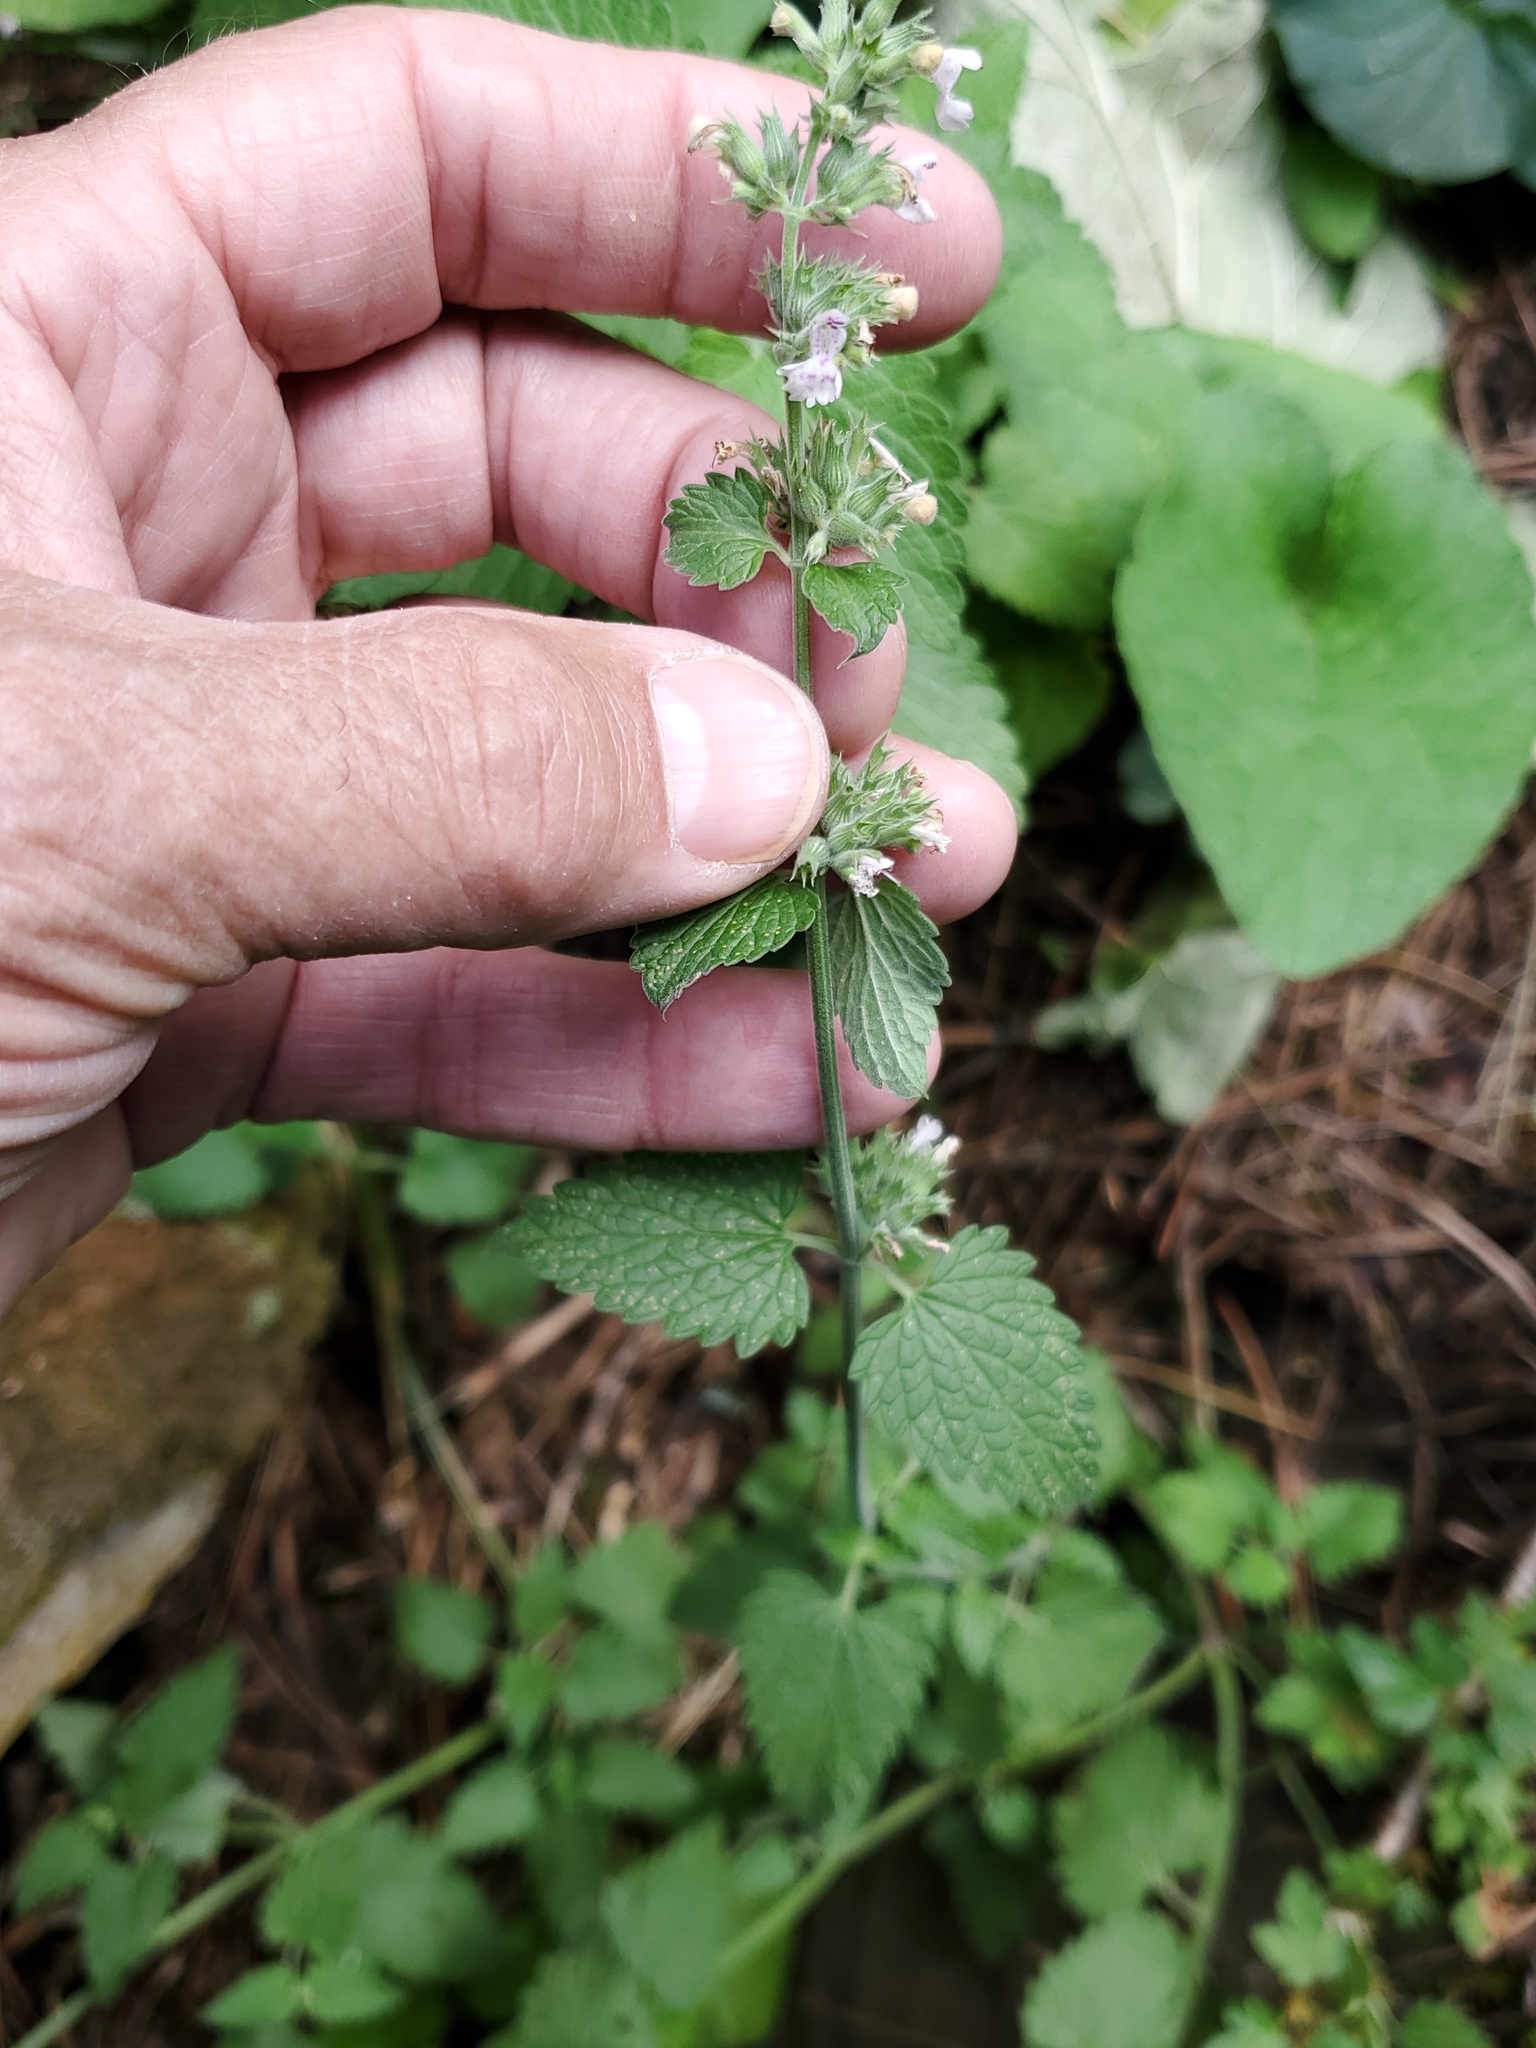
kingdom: Plantae
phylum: Tracheophyta
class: Magnoliopsida
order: Lamiales
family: Lamiaceae
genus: Nepeta
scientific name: Nepeta cataria
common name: Catnip
